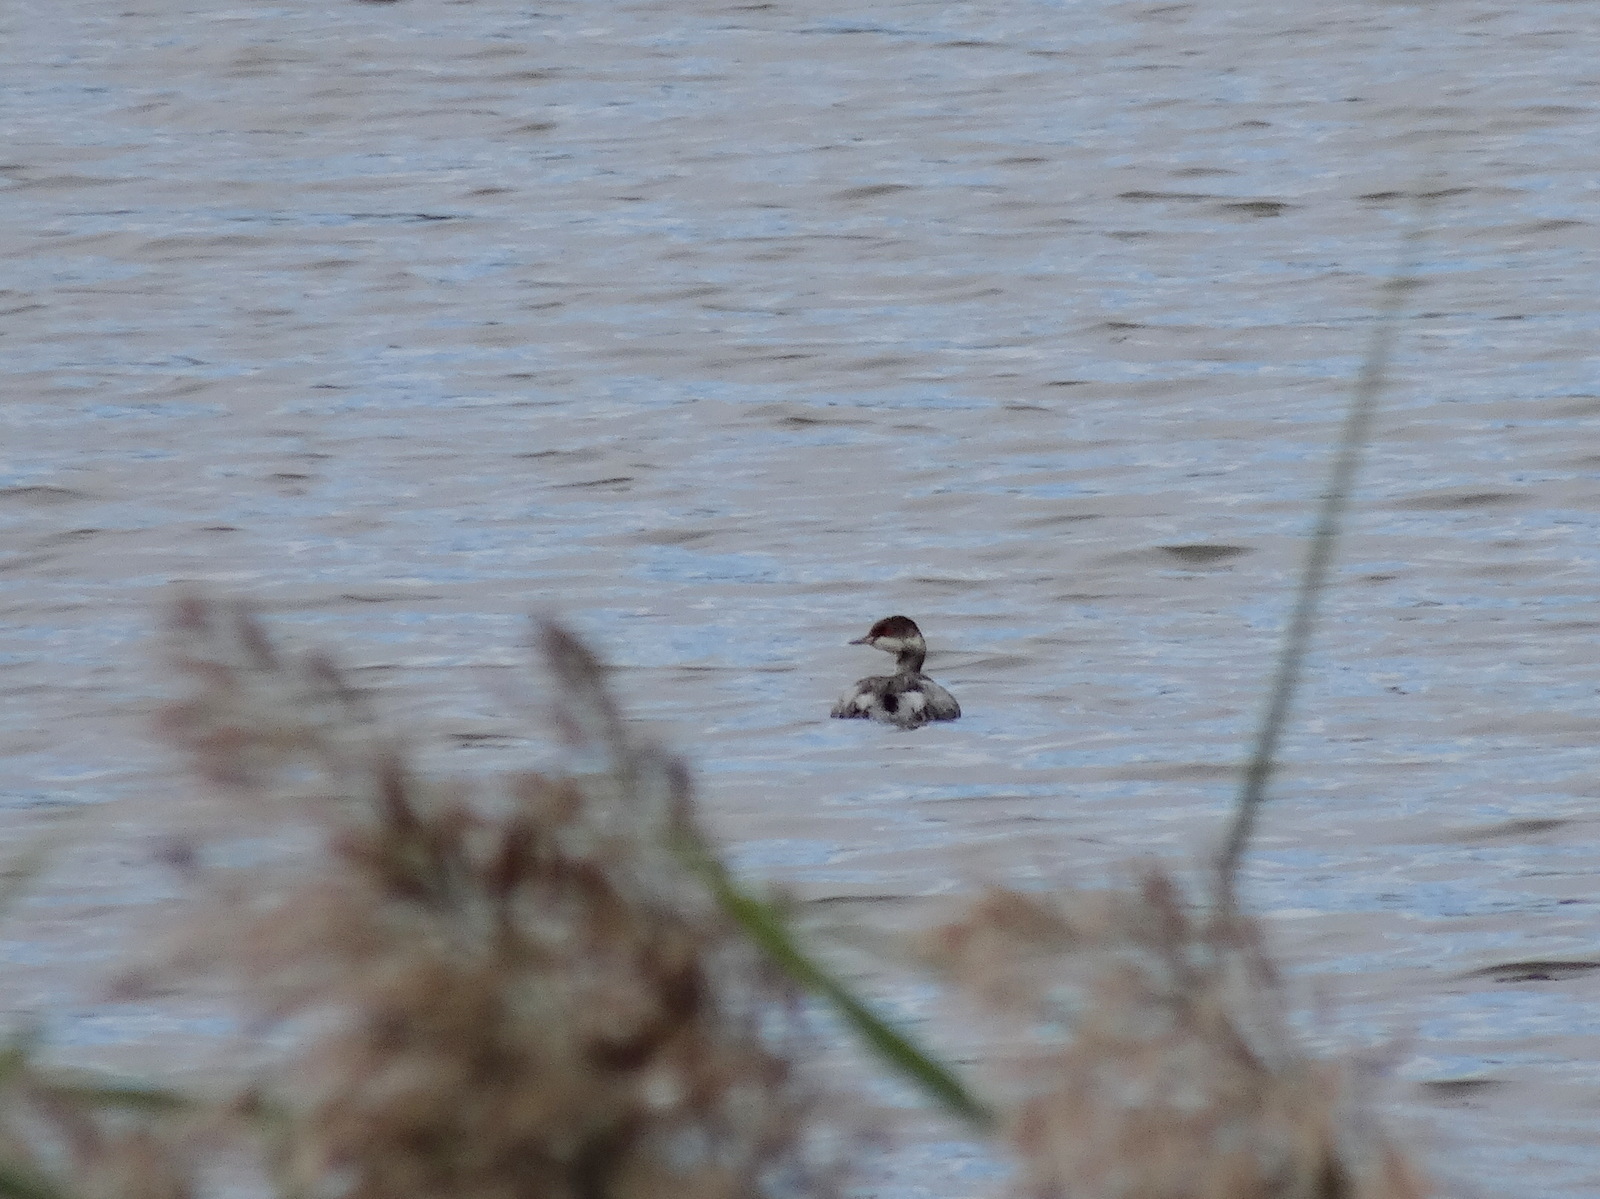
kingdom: Animalia
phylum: Chordata
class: Aves
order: Podicipediformes
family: Podicipedidae
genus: Podiceps
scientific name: Podiceps nigricollis
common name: Black-necked grebe
